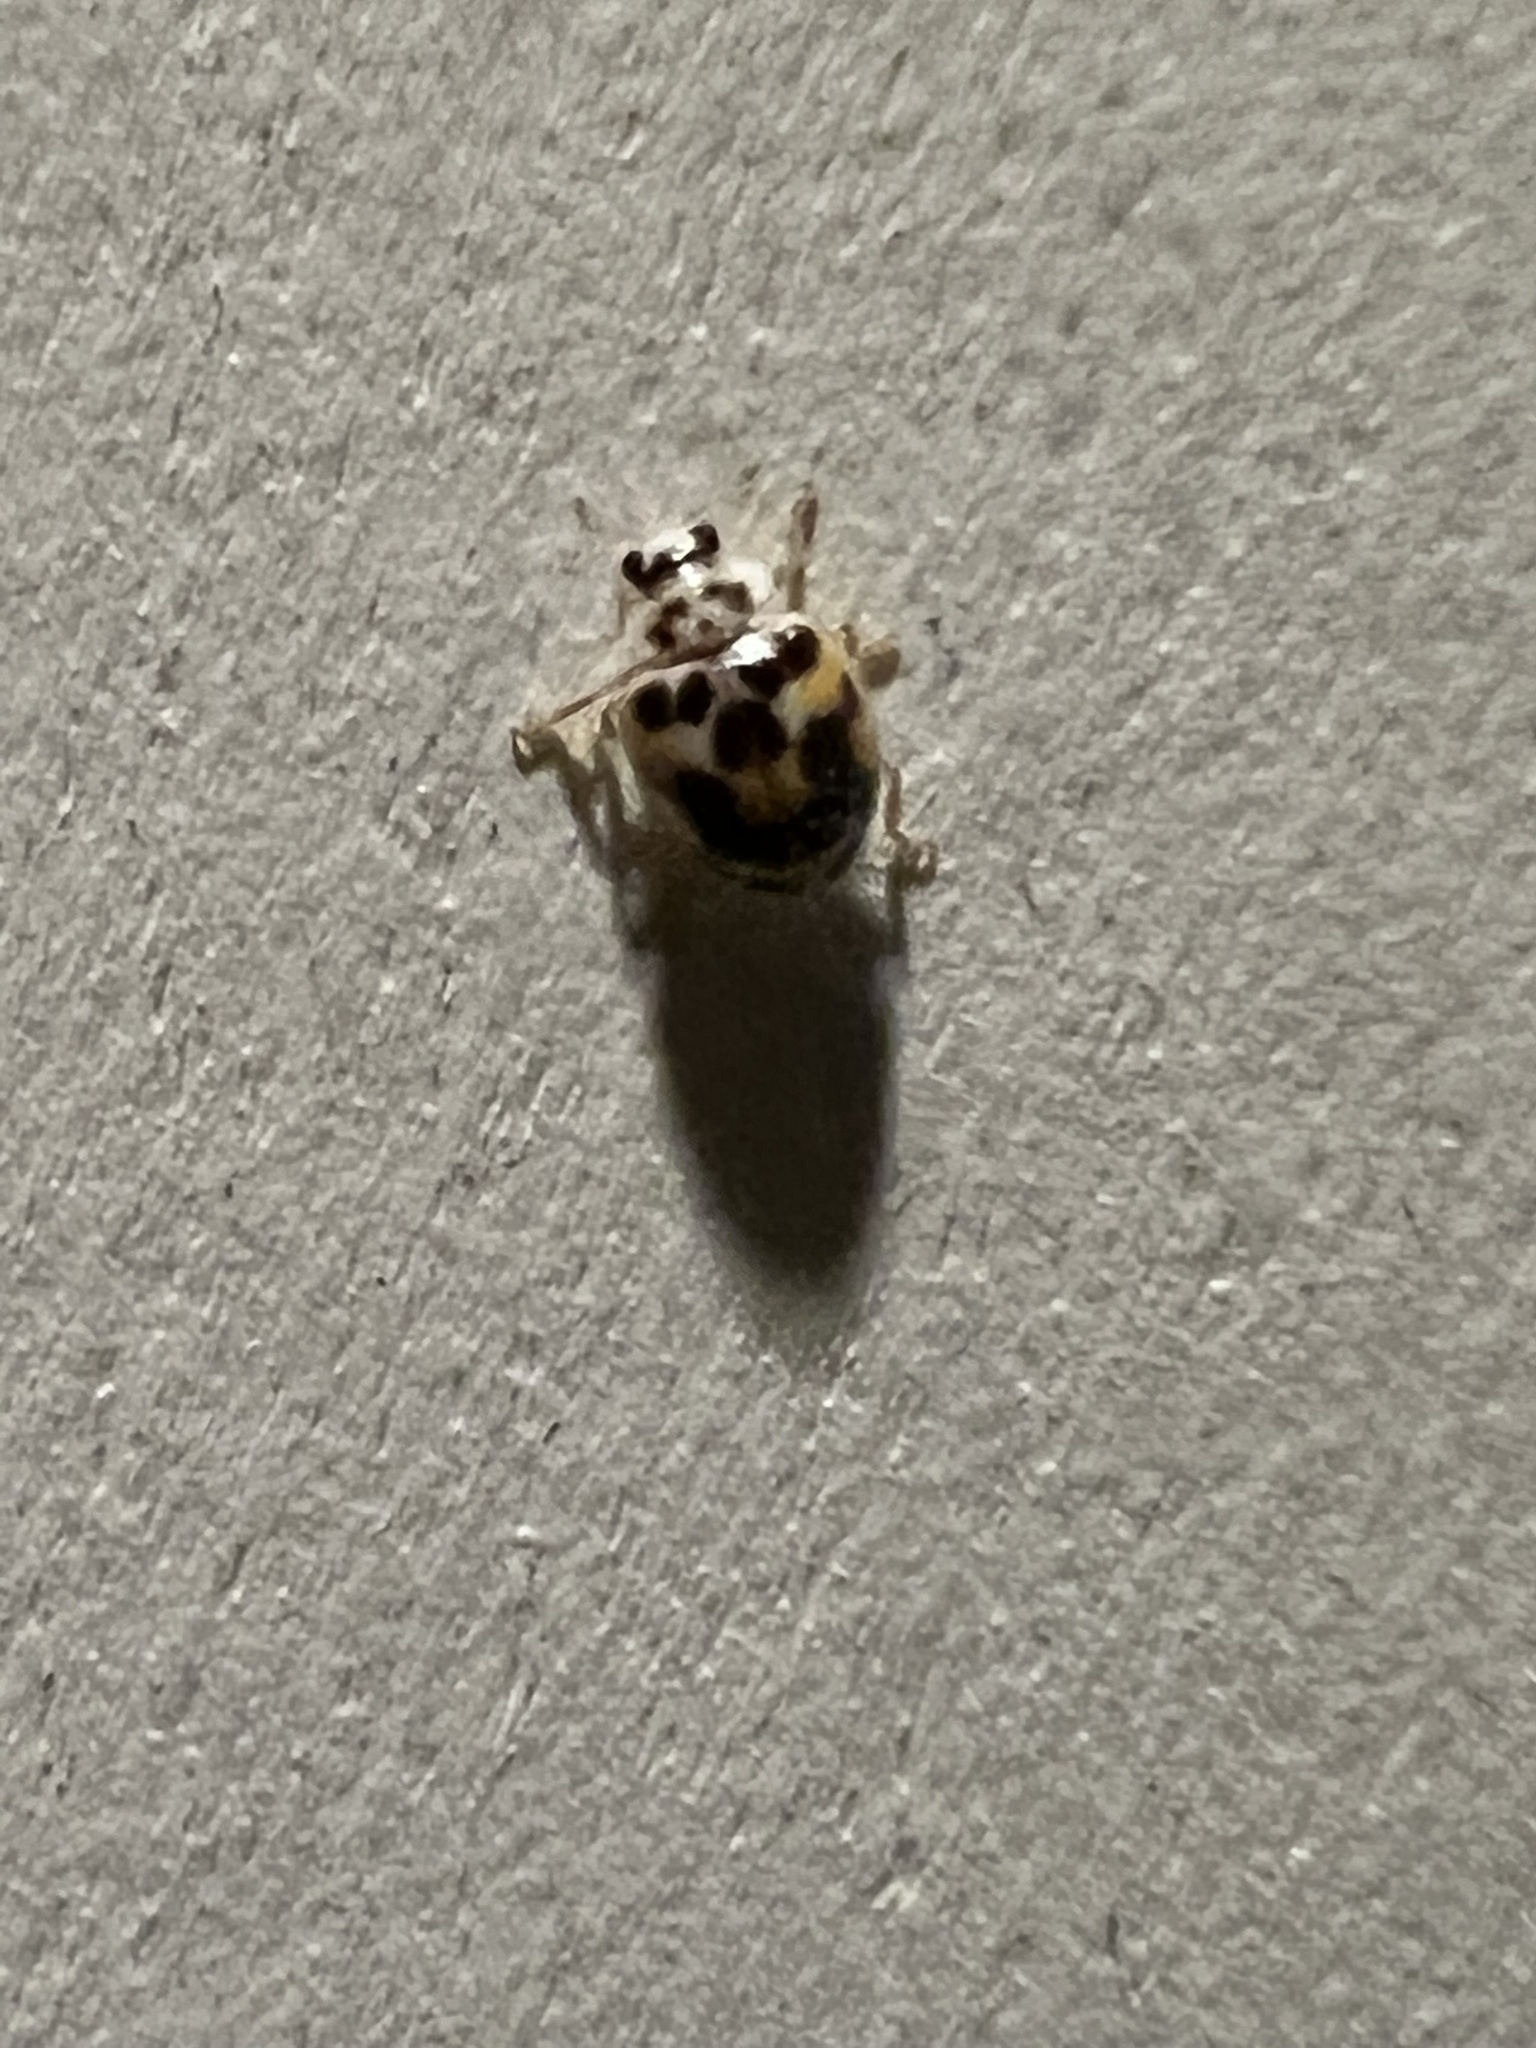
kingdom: Animalia
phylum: Arthropoda
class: Insecta
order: Coleoptera
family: Coccinellidae
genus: Psyllobora
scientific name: Psyllobora vigintimaculata
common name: Ladybird beetle
